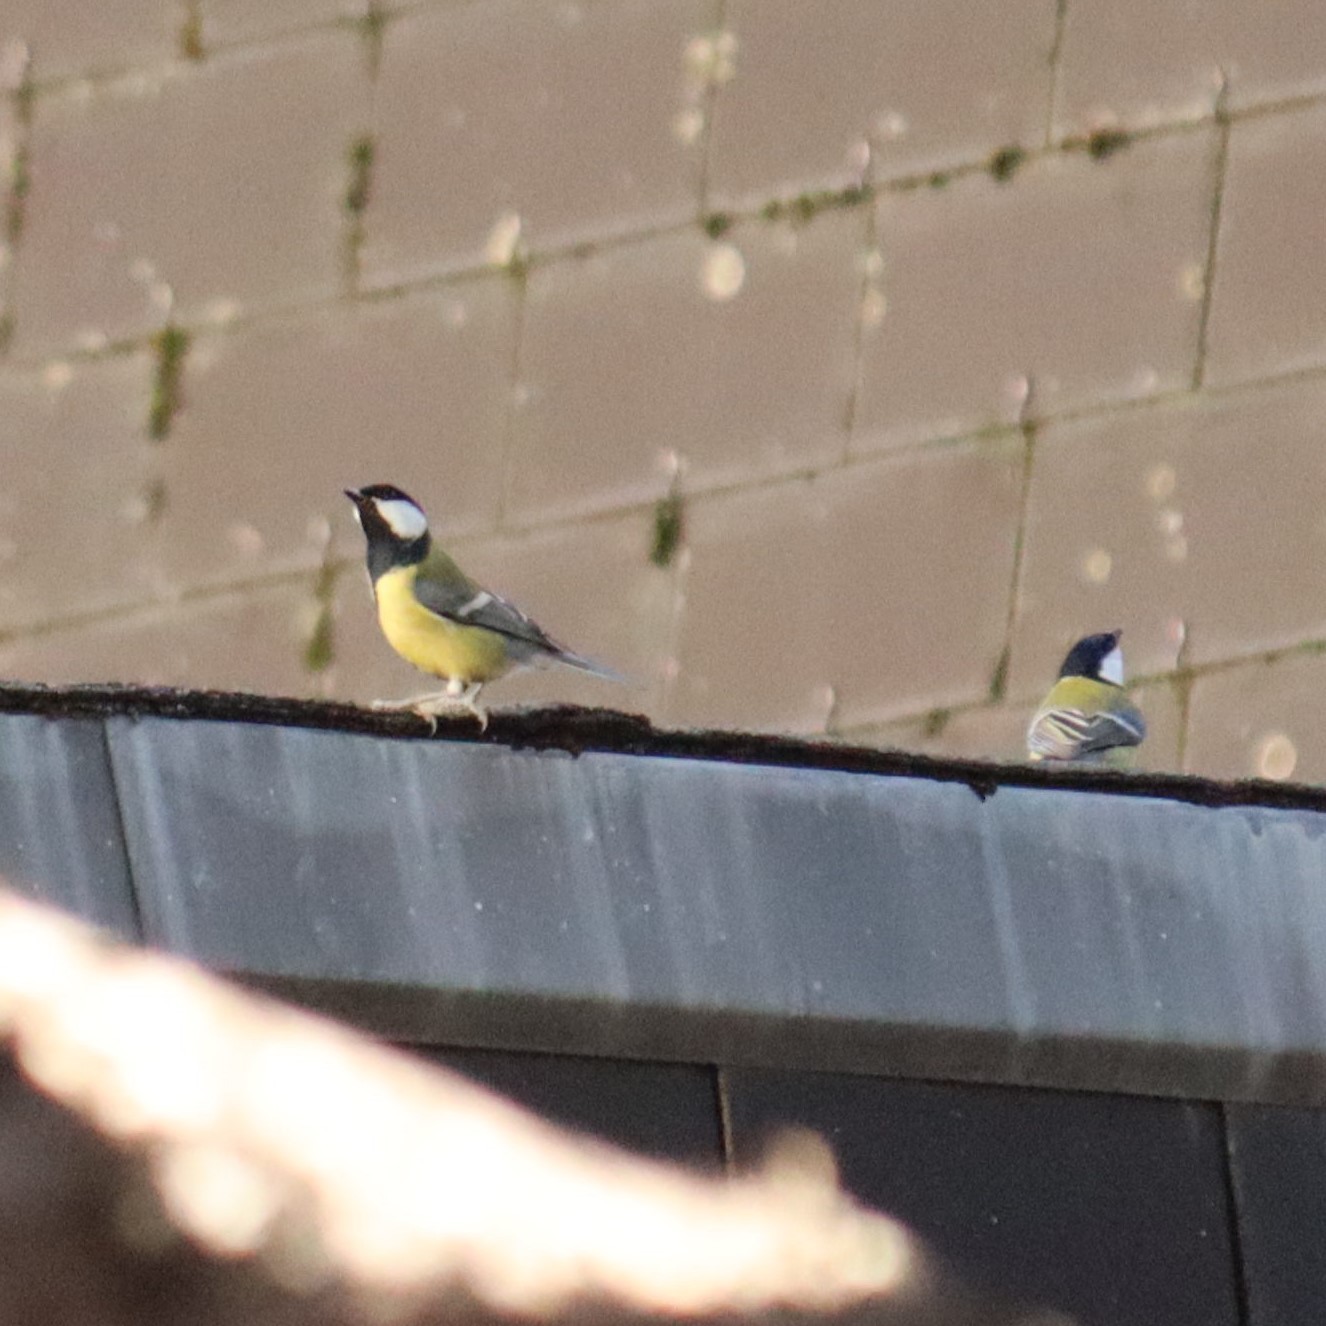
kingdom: Animalia
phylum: Chordata
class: Aves
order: Passeriformes
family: Paridae
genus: Parus
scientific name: Parus major
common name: Great tit
